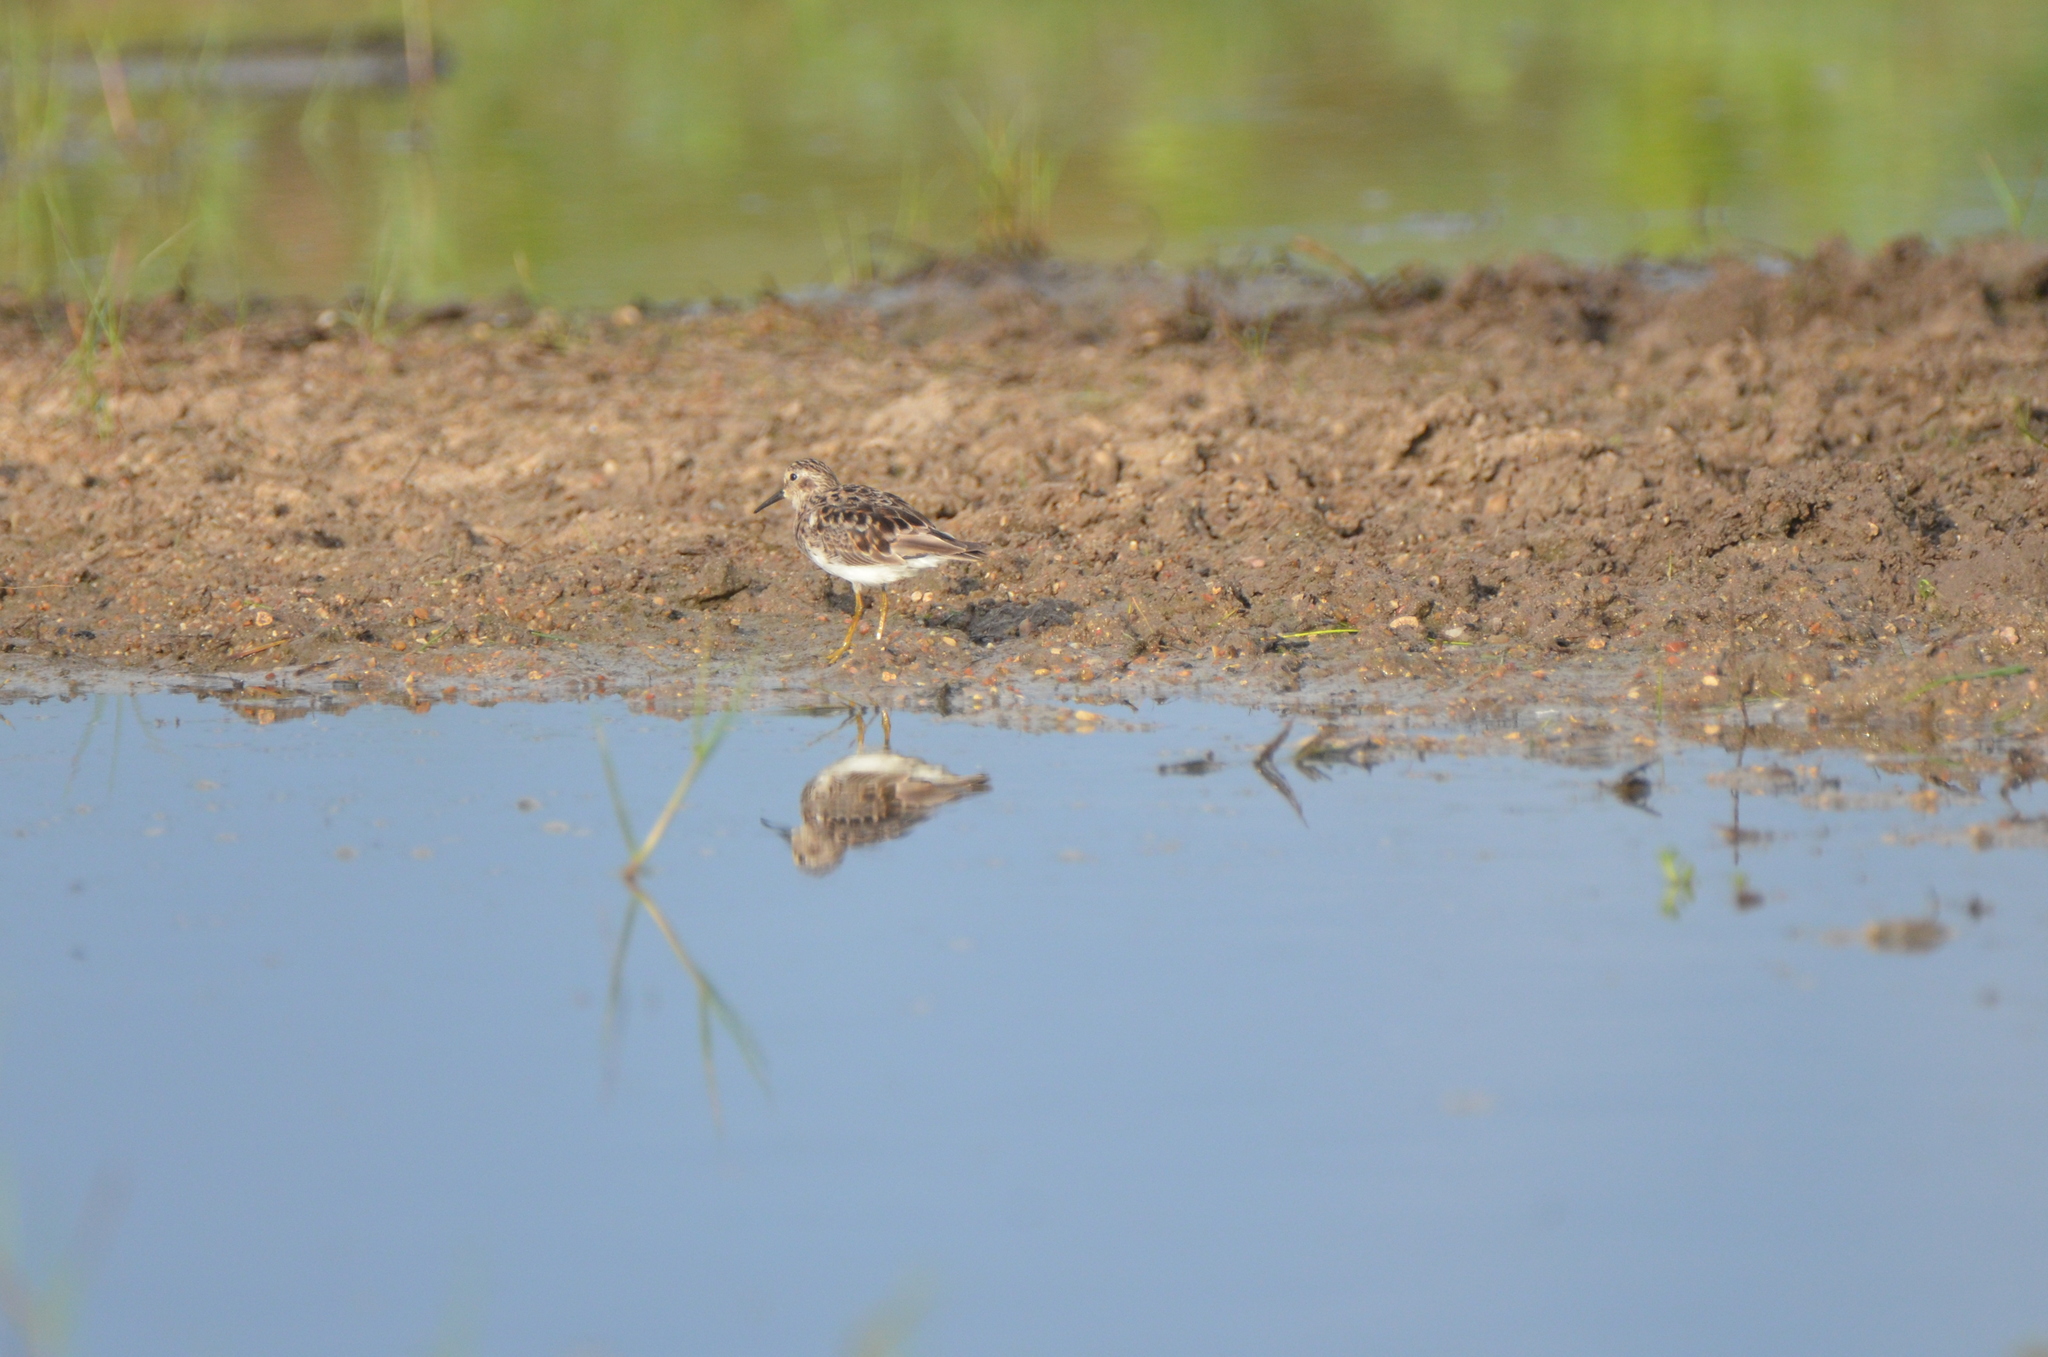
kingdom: Animalia
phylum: Chordata
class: Aves
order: Charadriiformes
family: Scolopacidae
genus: Calidris
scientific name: Calidris minutilla
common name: Least sandpiper
